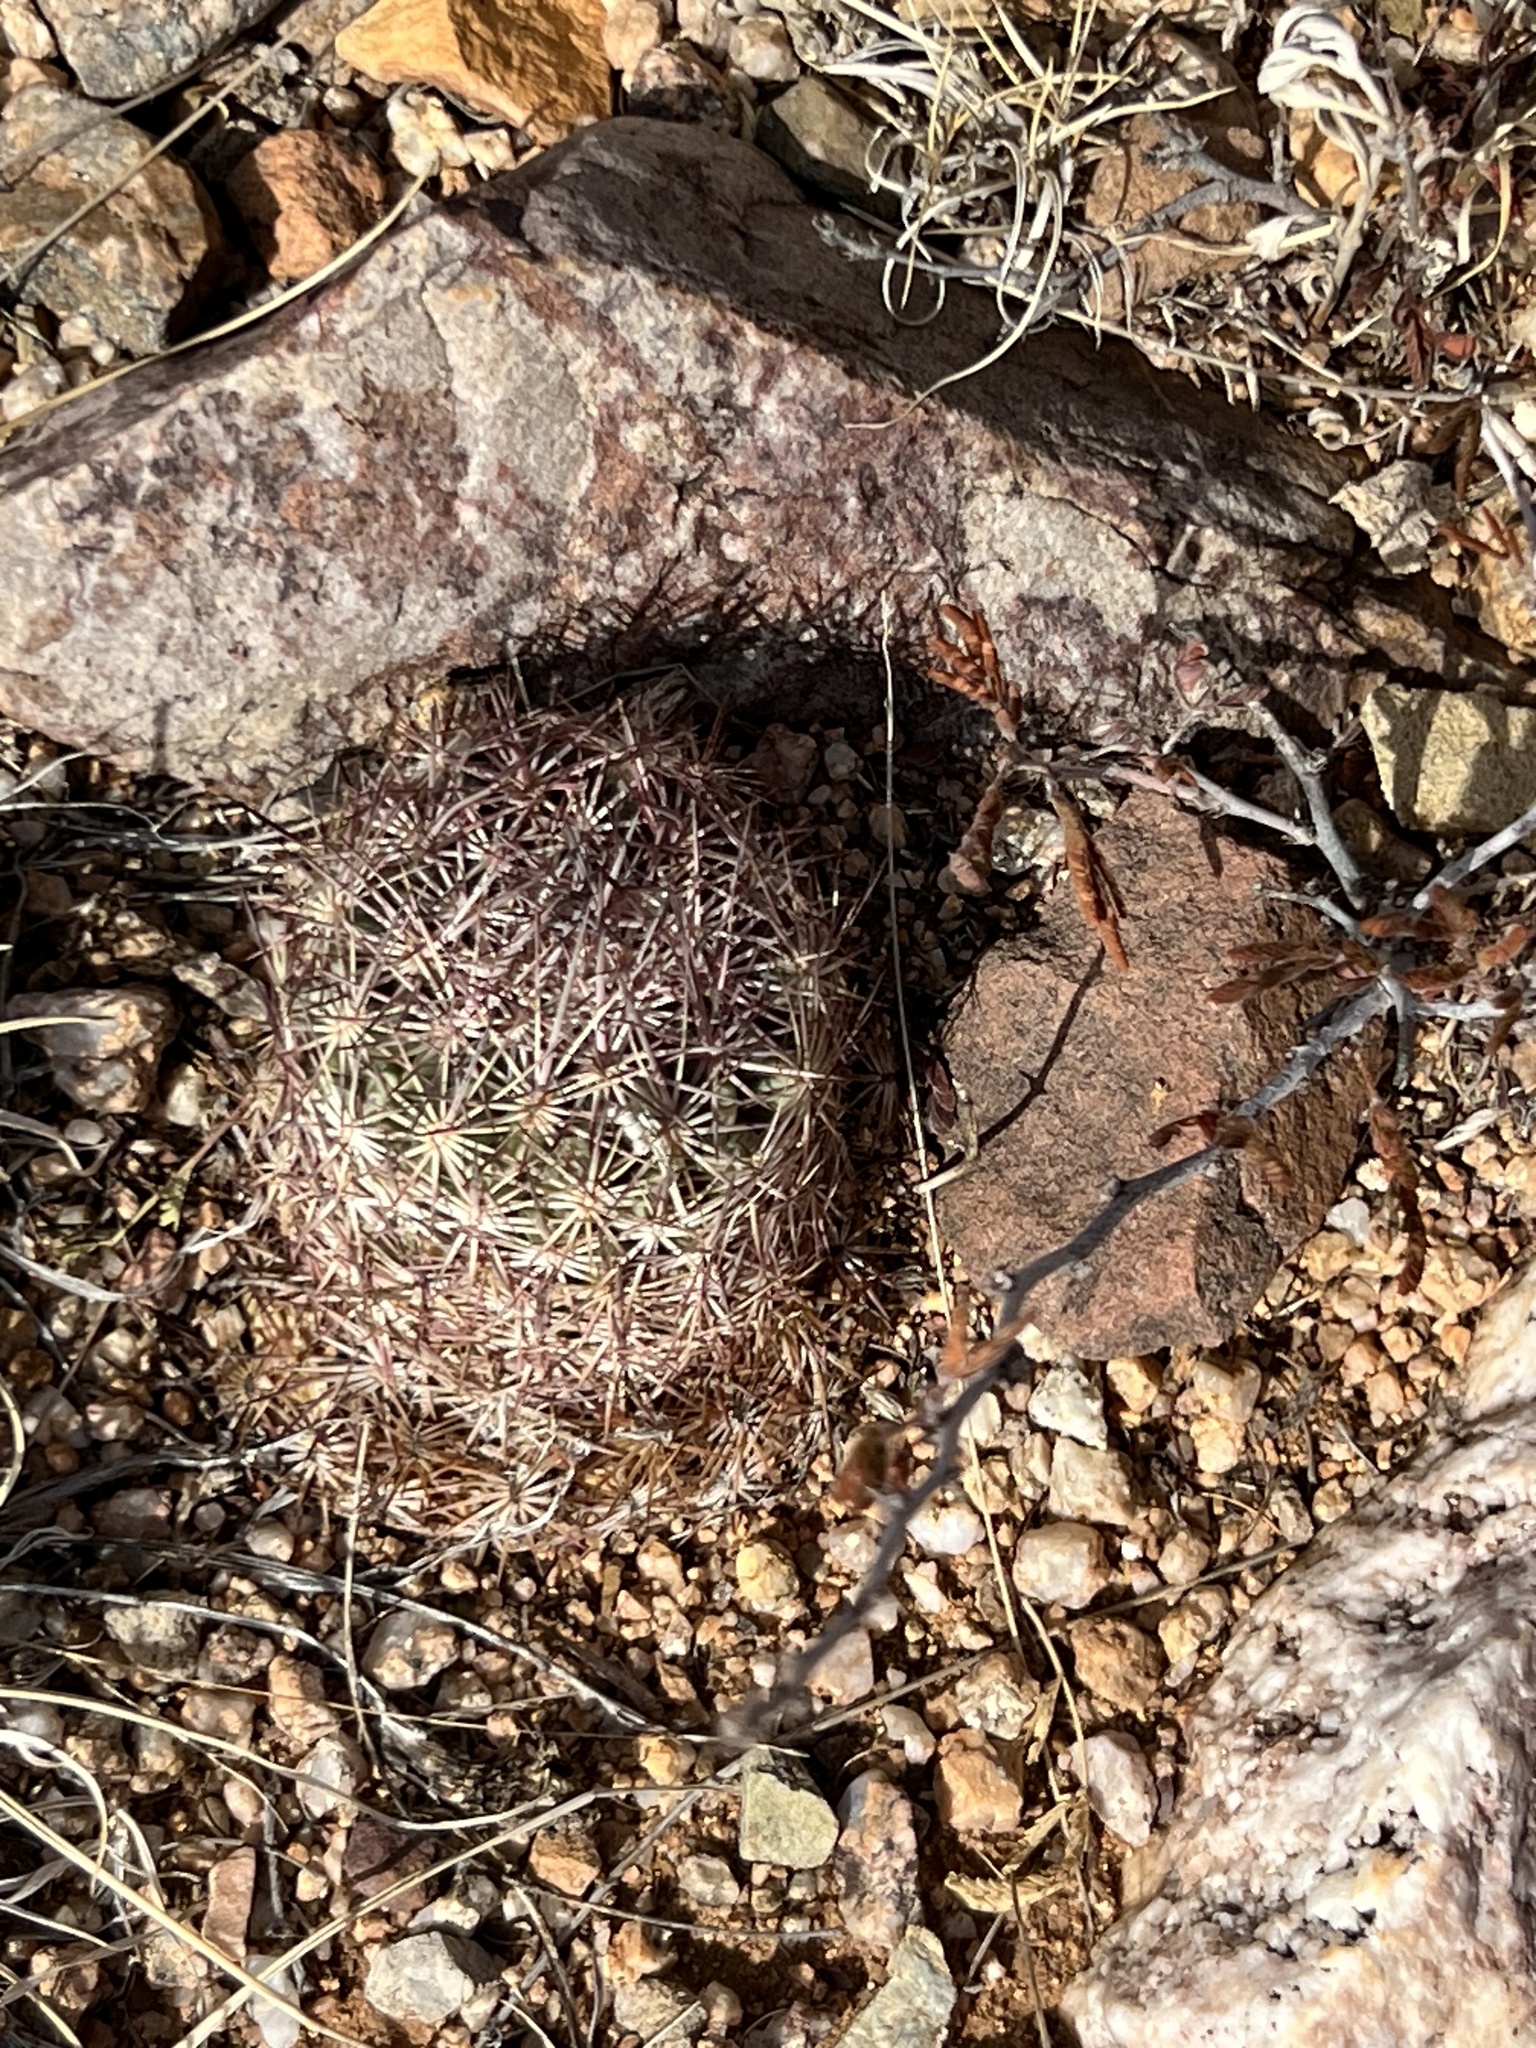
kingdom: Plantae
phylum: Tracheophyta
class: Magnoliopsida
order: Caryophyllales
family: Cactaceae
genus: Sclerocactus
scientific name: Sclerocactus johnsonii
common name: Eight-spine fishhook cactus
